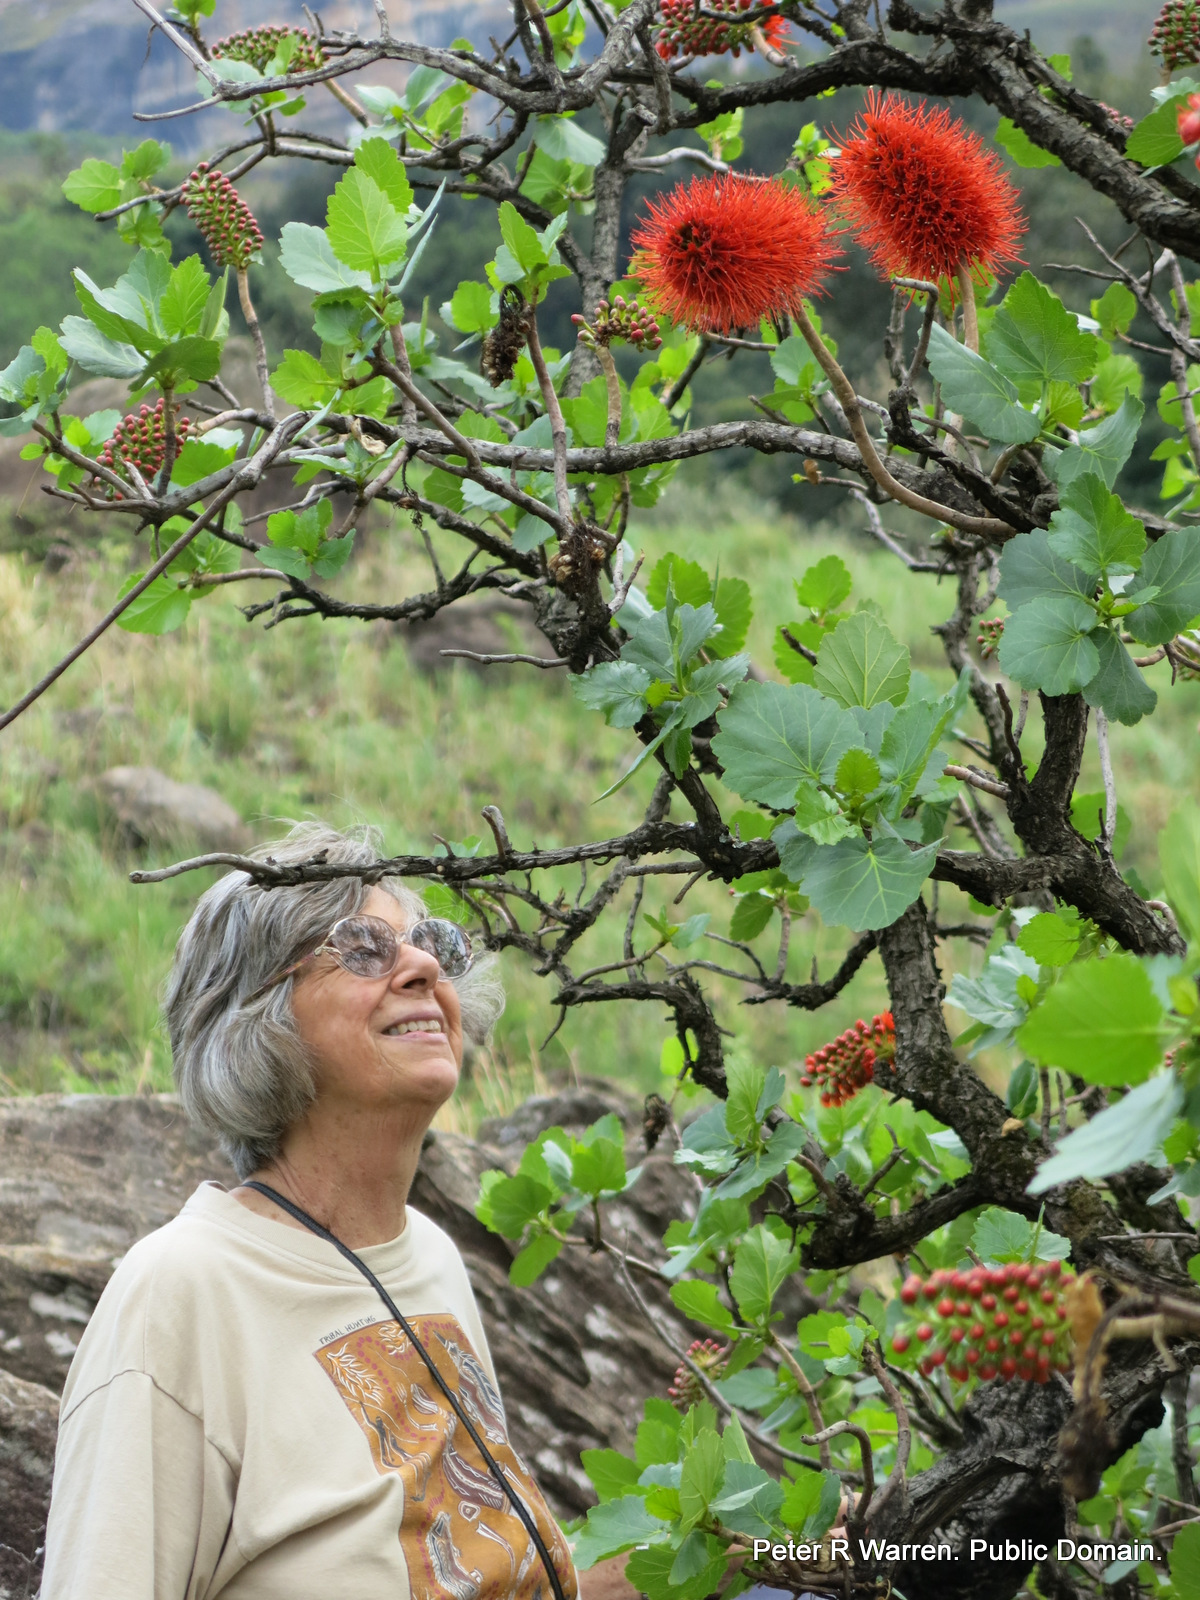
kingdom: Plantae
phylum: Tracheophyta
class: Magnoliopsida
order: Geraniales
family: Francoaceae
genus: Greyia
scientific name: Greyia sutherlandii
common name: Glossy bottlebrush
